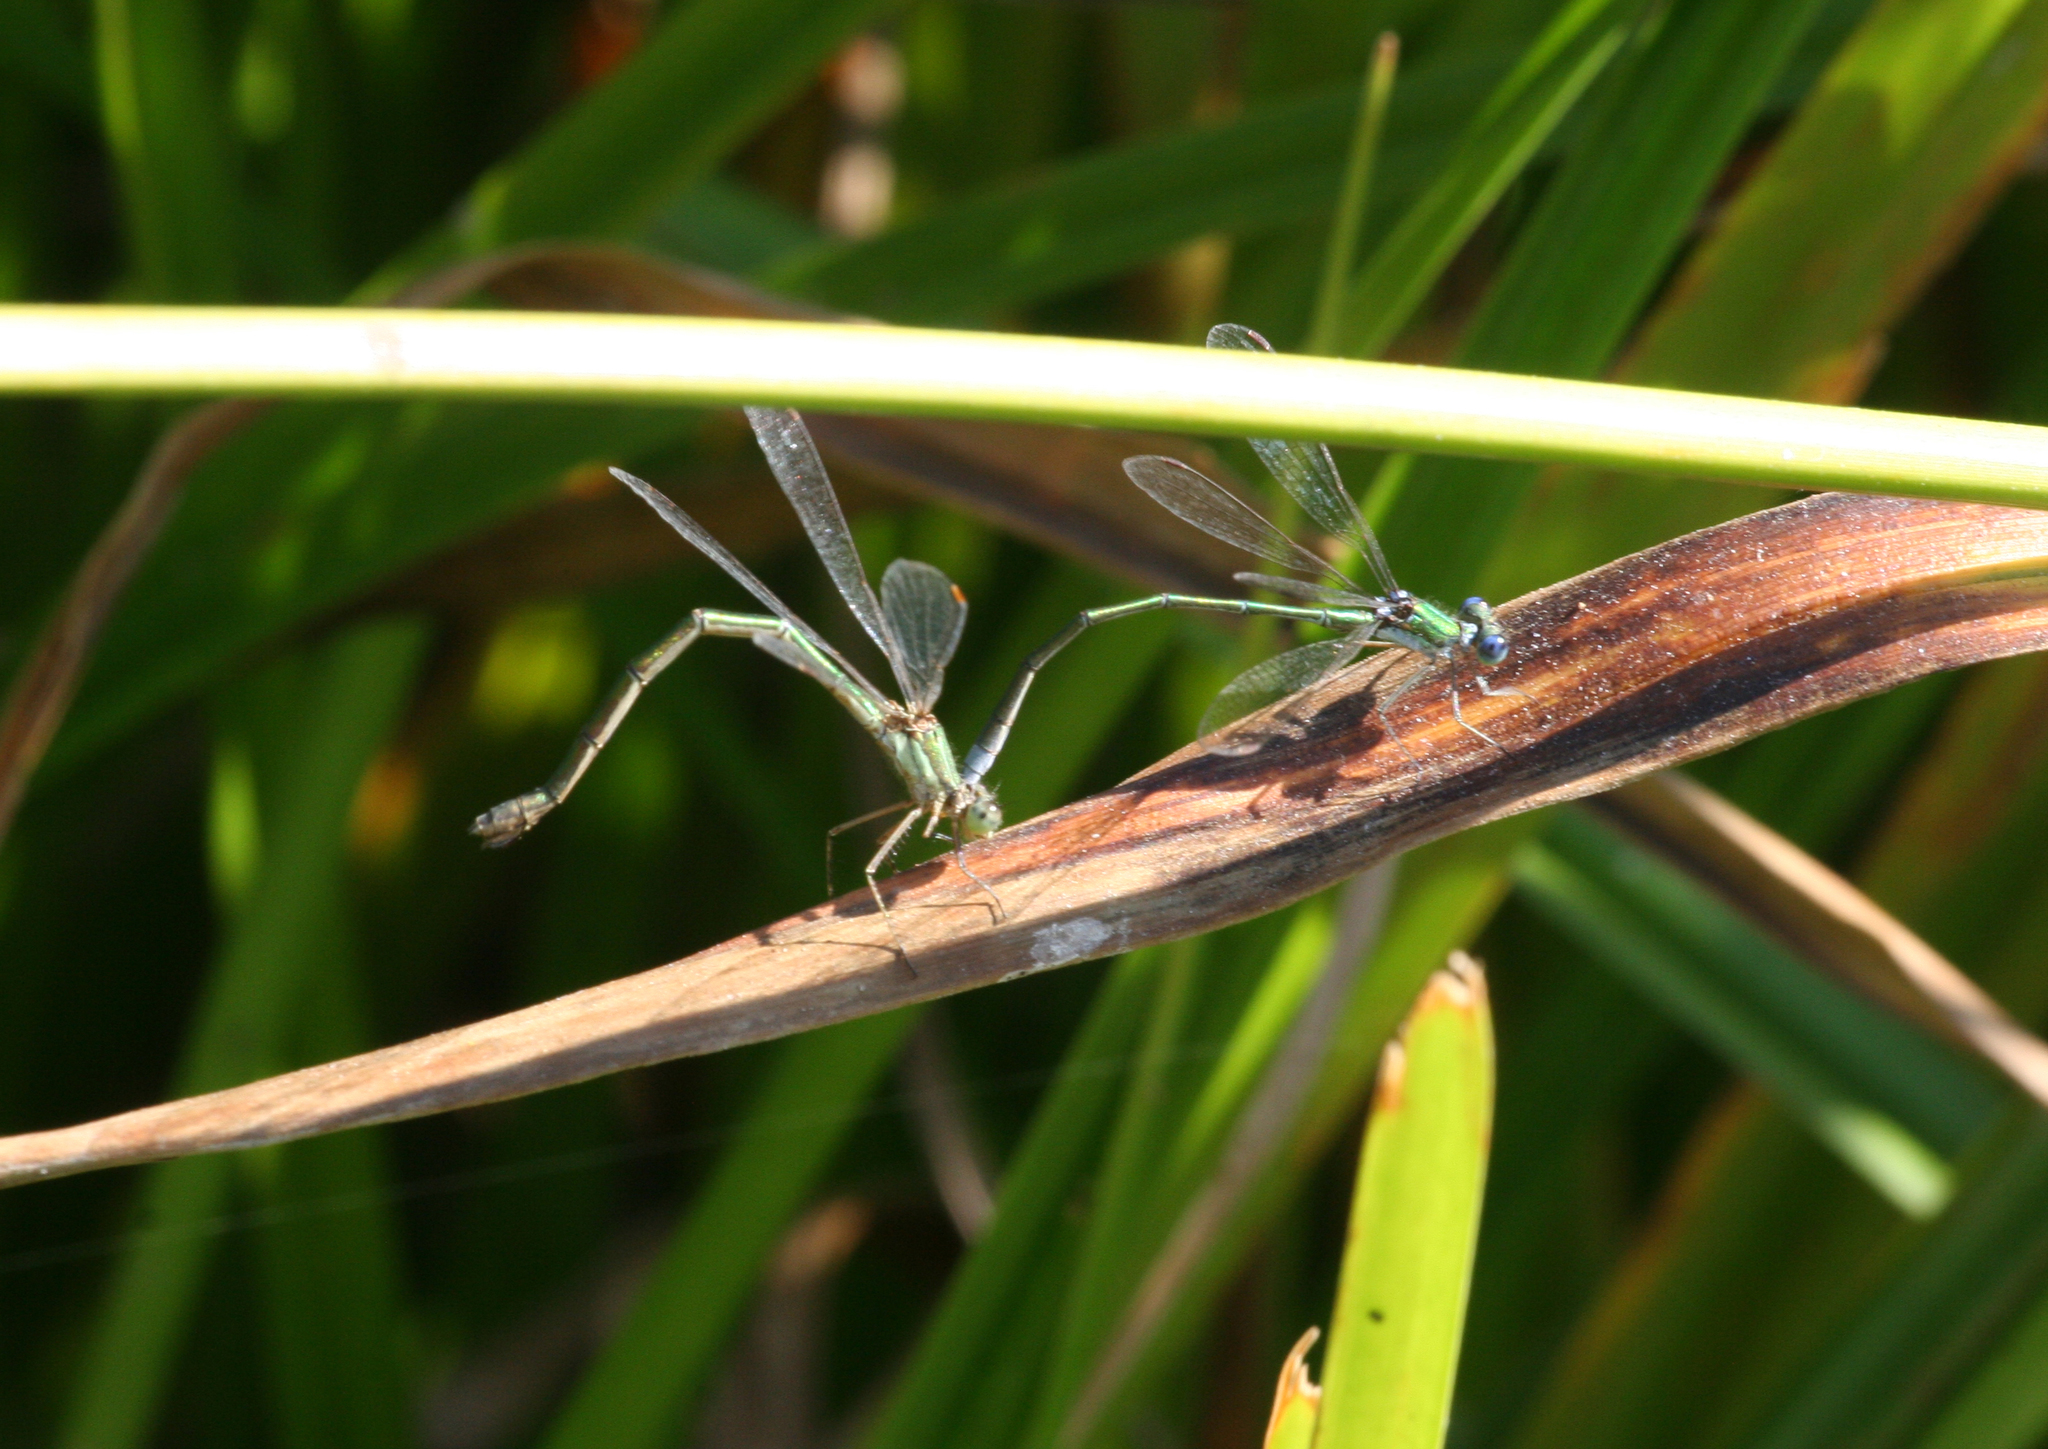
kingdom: Animalia
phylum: Arthropoda
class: Insecta
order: Odonata
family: Lestidae
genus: Lestes
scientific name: Lestes virens
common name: Small emerald spreadwing
